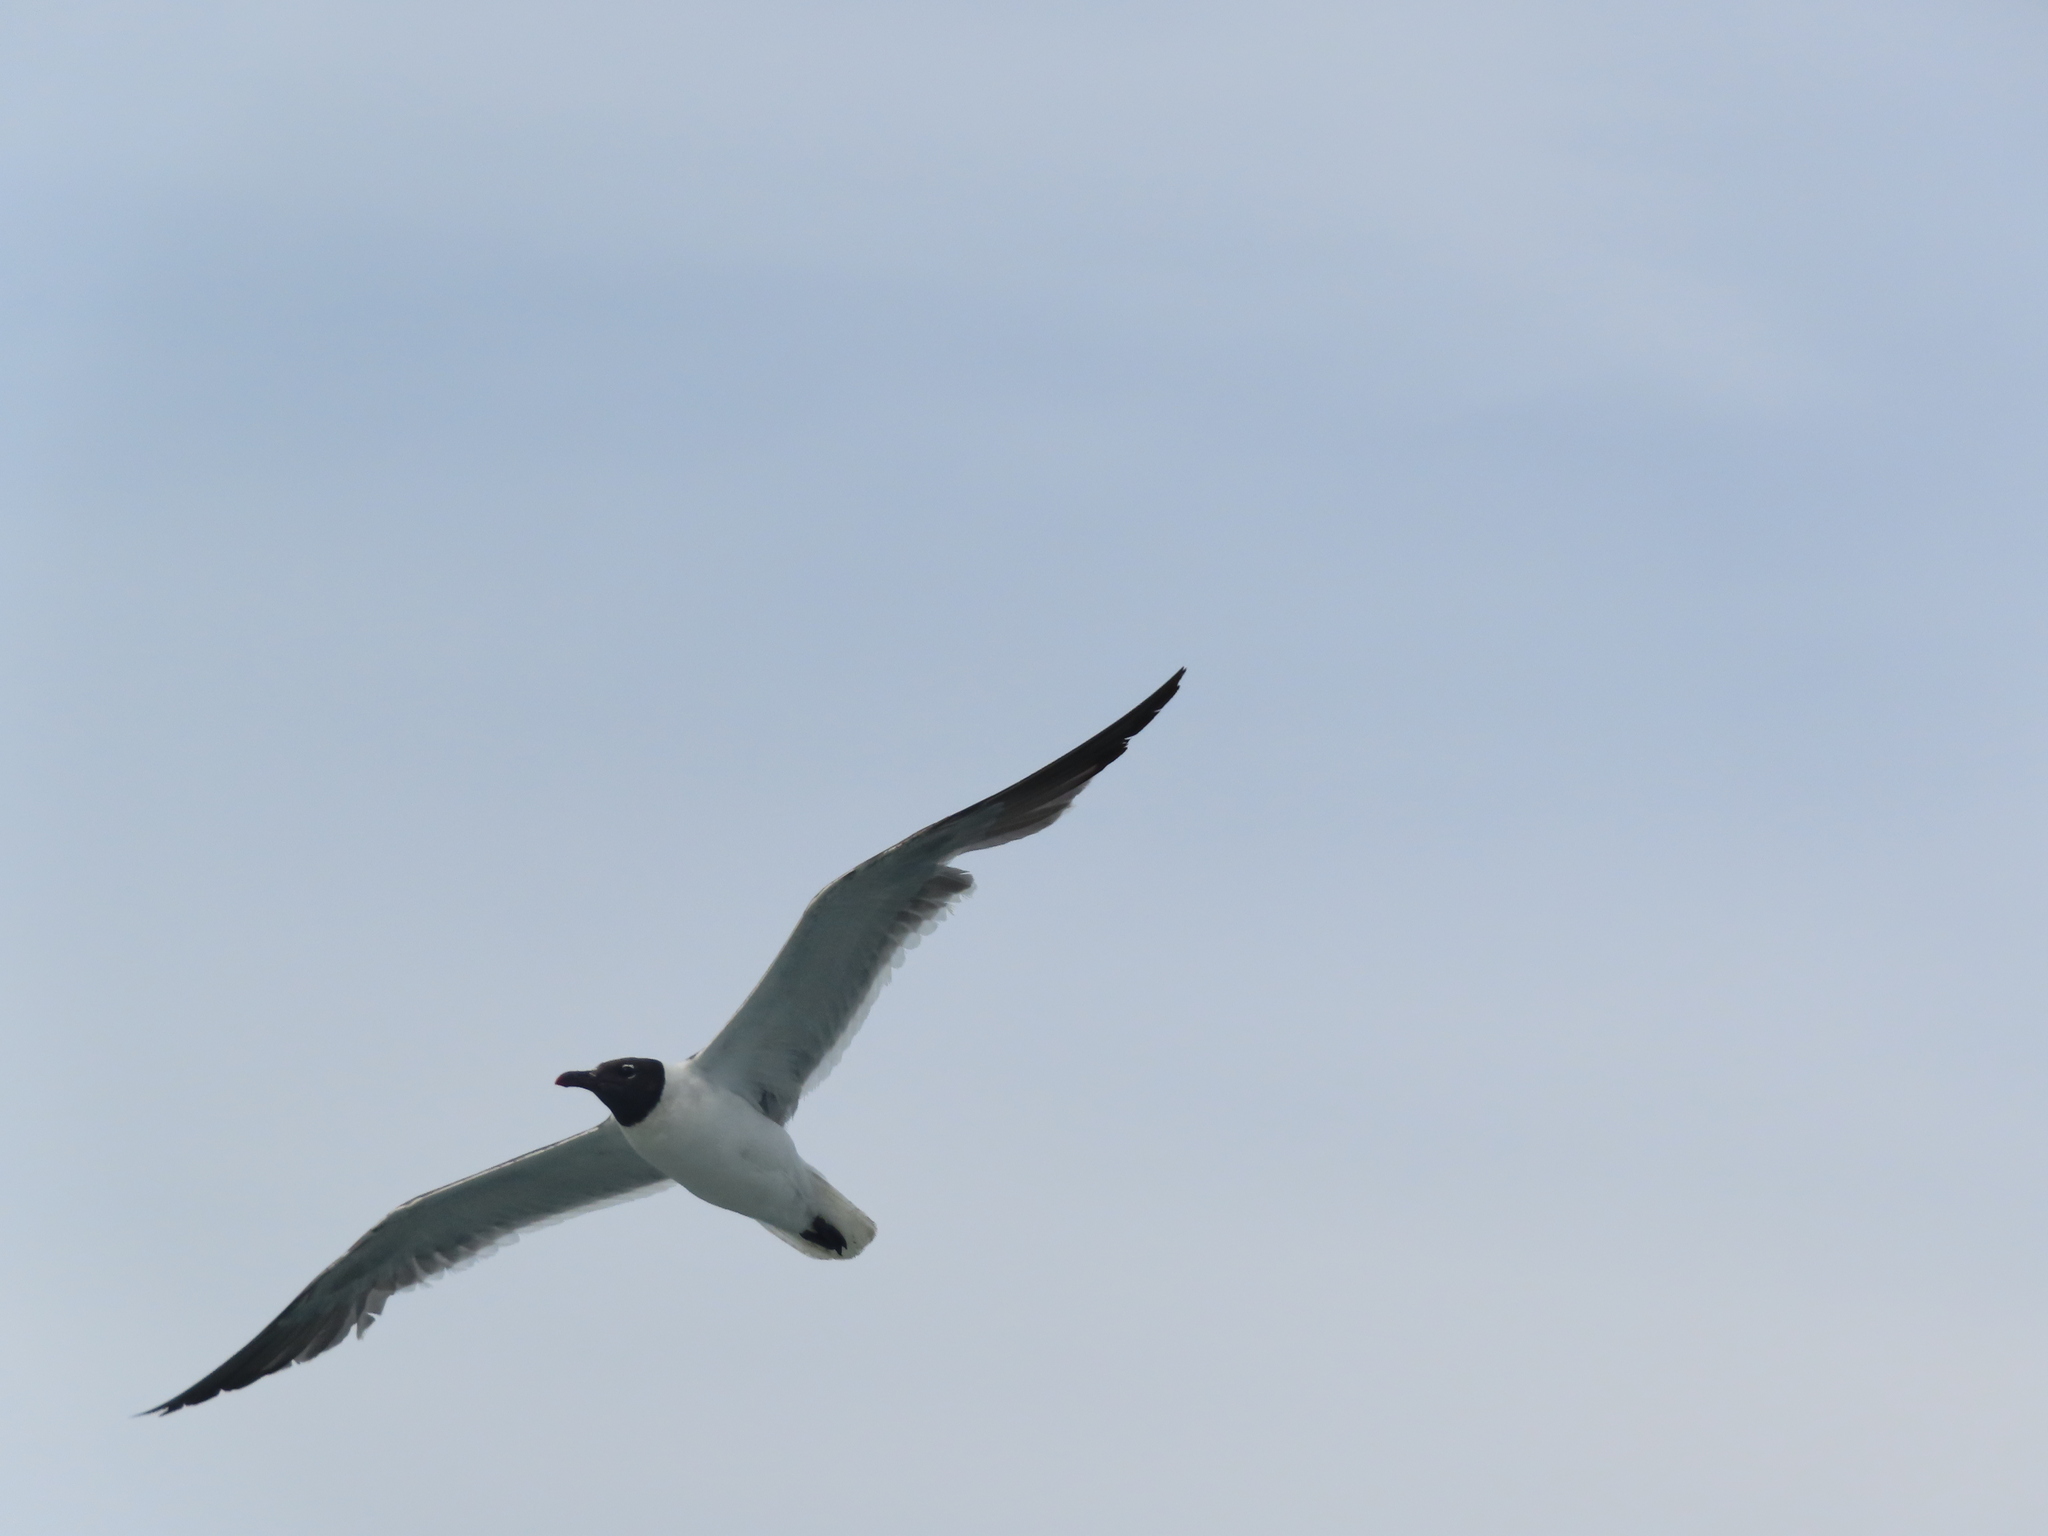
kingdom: Animalia
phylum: Chordata
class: Aves
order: Charadriiformes
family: Laridae
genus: Leucophaeus
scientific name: Leucophaeus atricilla
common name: Laughing gull
